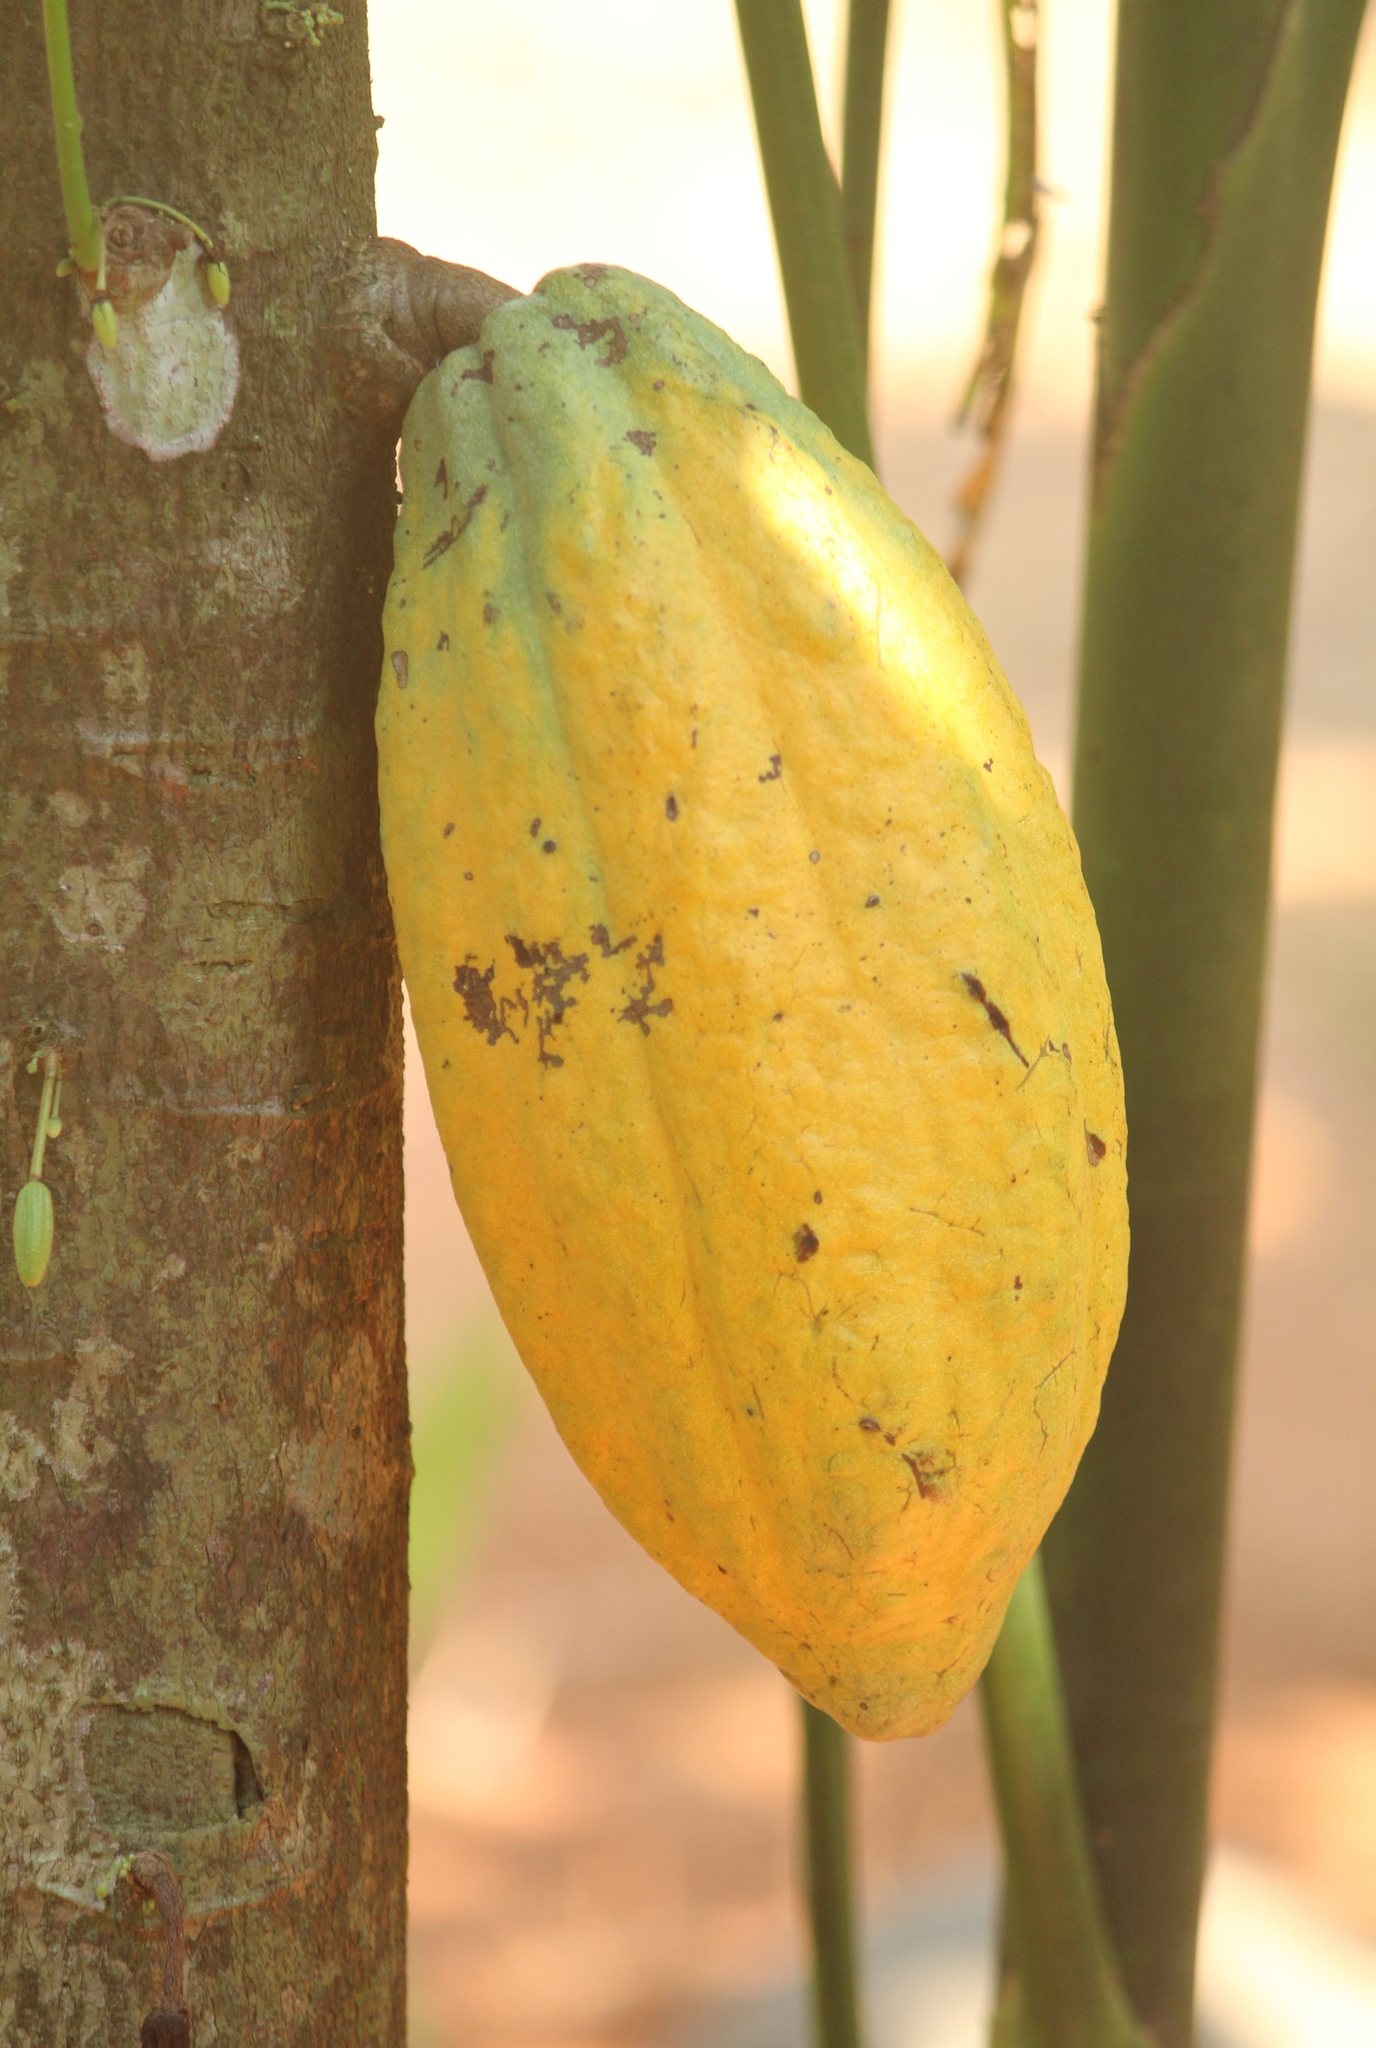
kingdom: Plantae
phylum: Tracheophyta
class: Magnoliopsida
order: Malvales
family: Malvaceae
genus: Theobroma
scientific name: Theobroma cacao
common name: Cocoa
